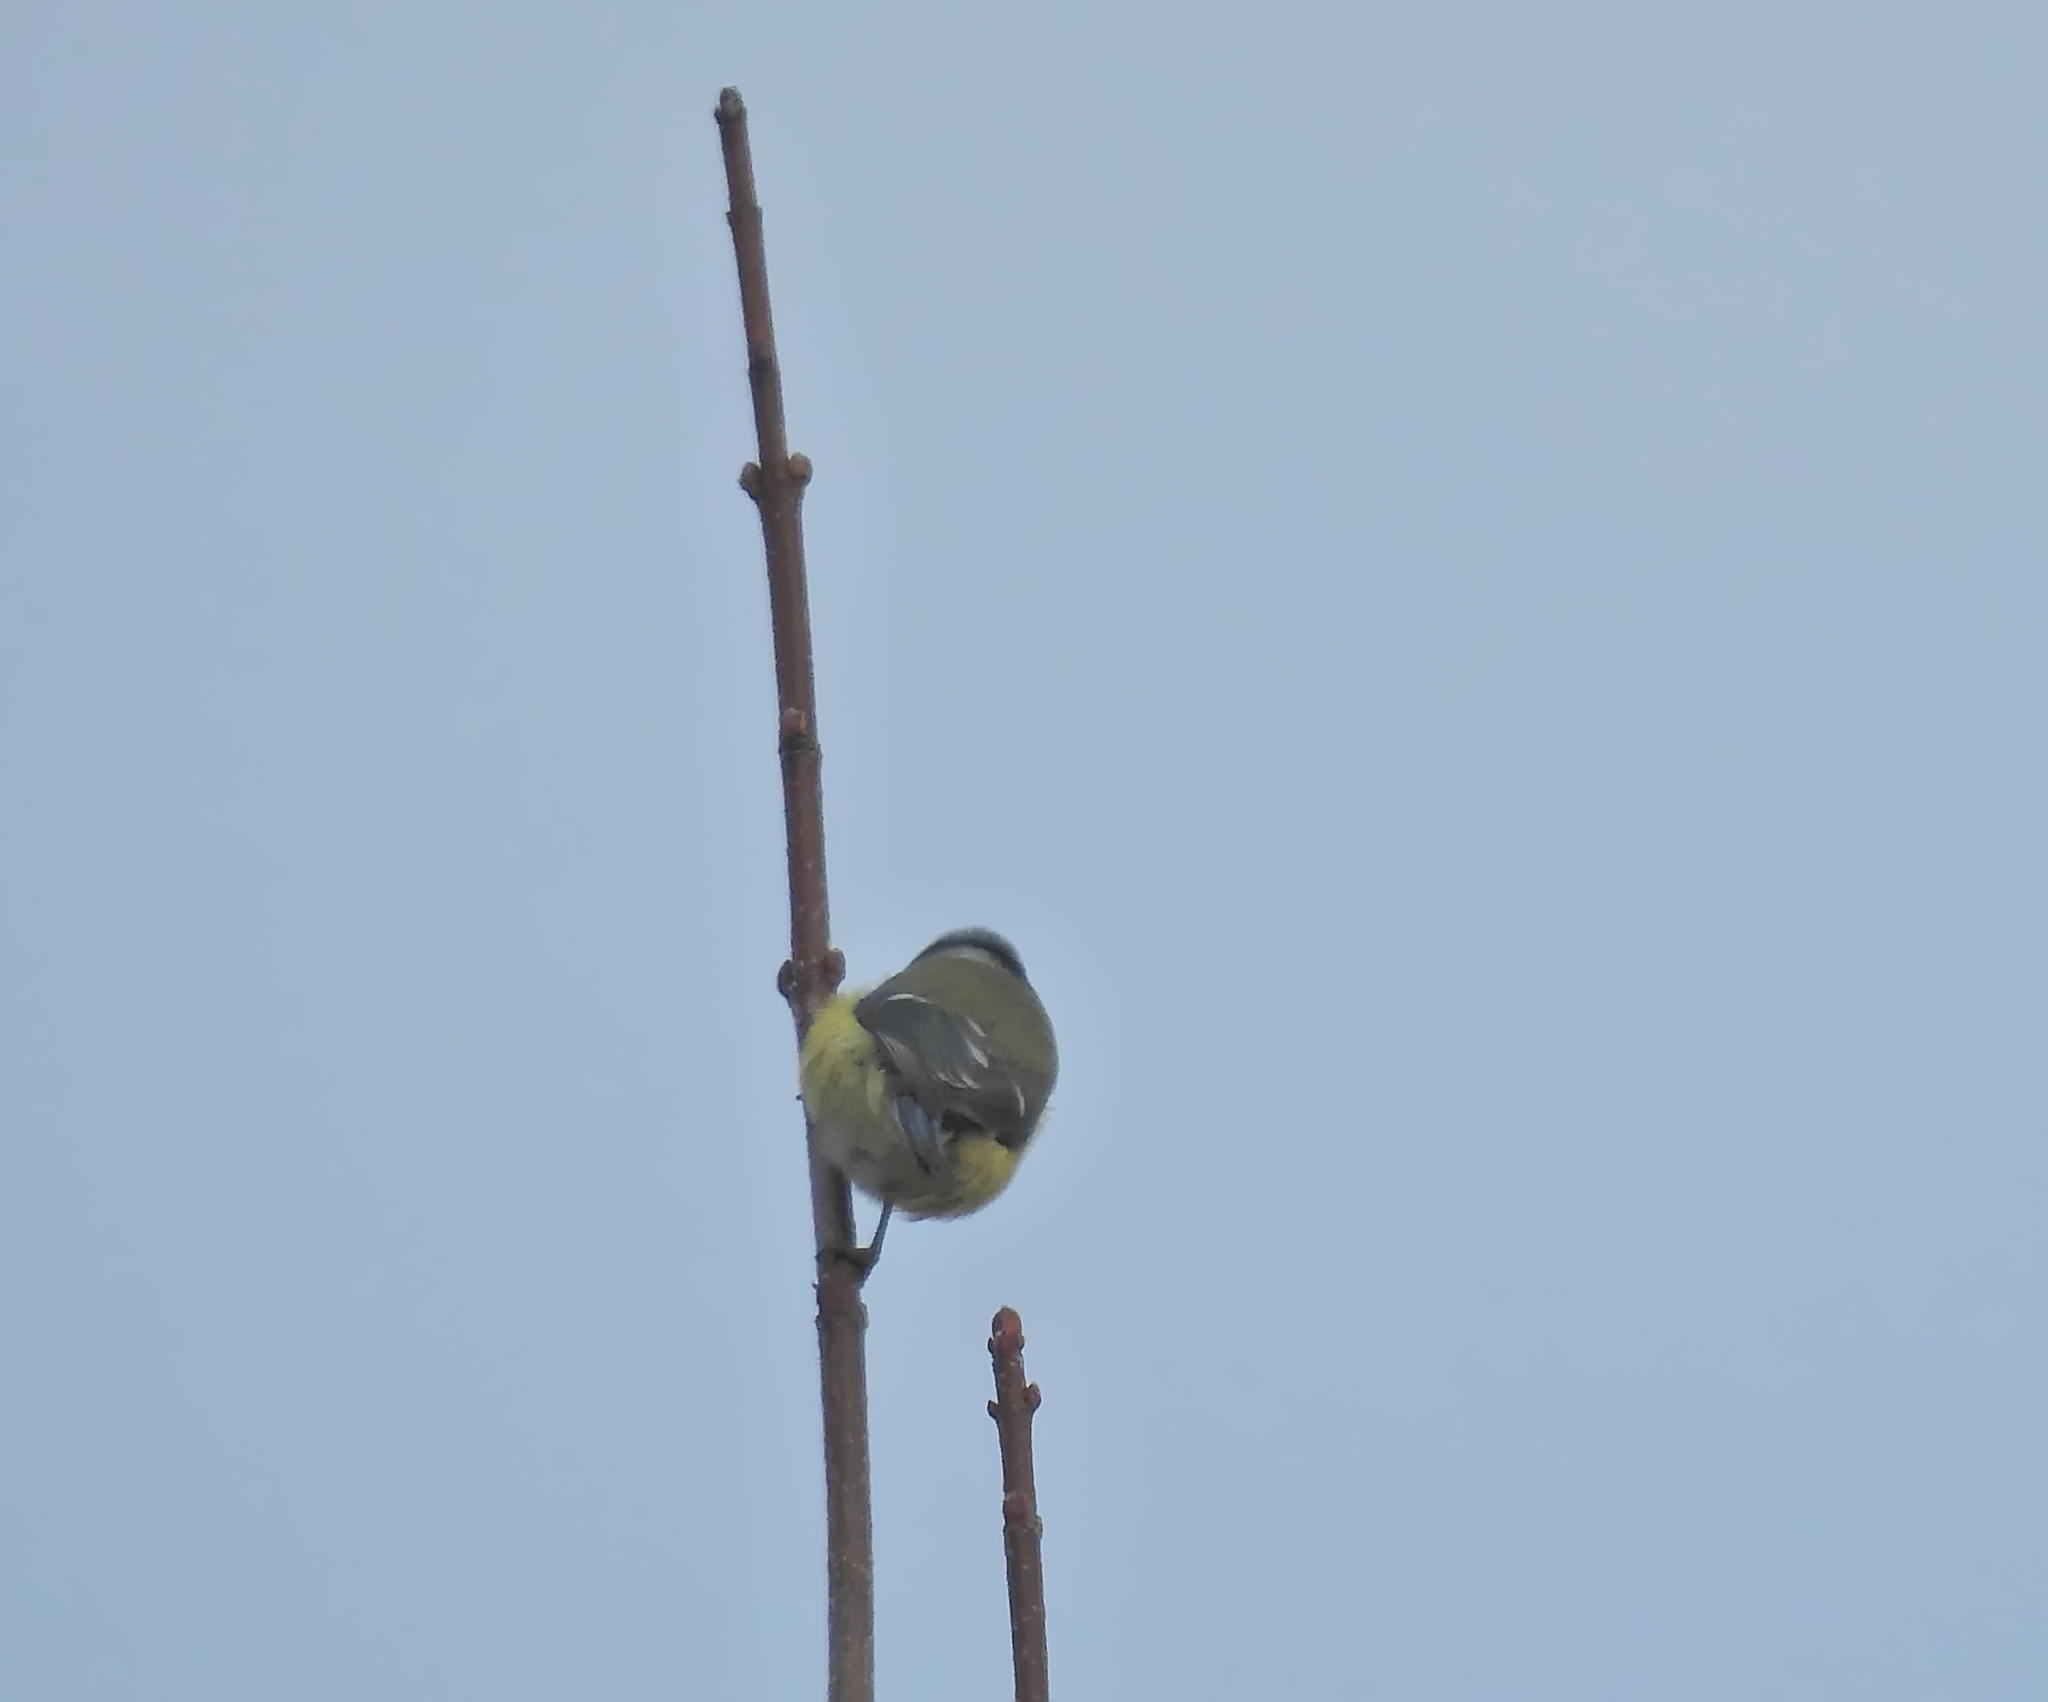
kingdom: Animalia
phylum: Chordata
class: Aves
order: Passeriformes
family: Paridae
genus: Cyanistes
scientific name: Cyanistes caeruleus
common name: Eurasian blue tit
